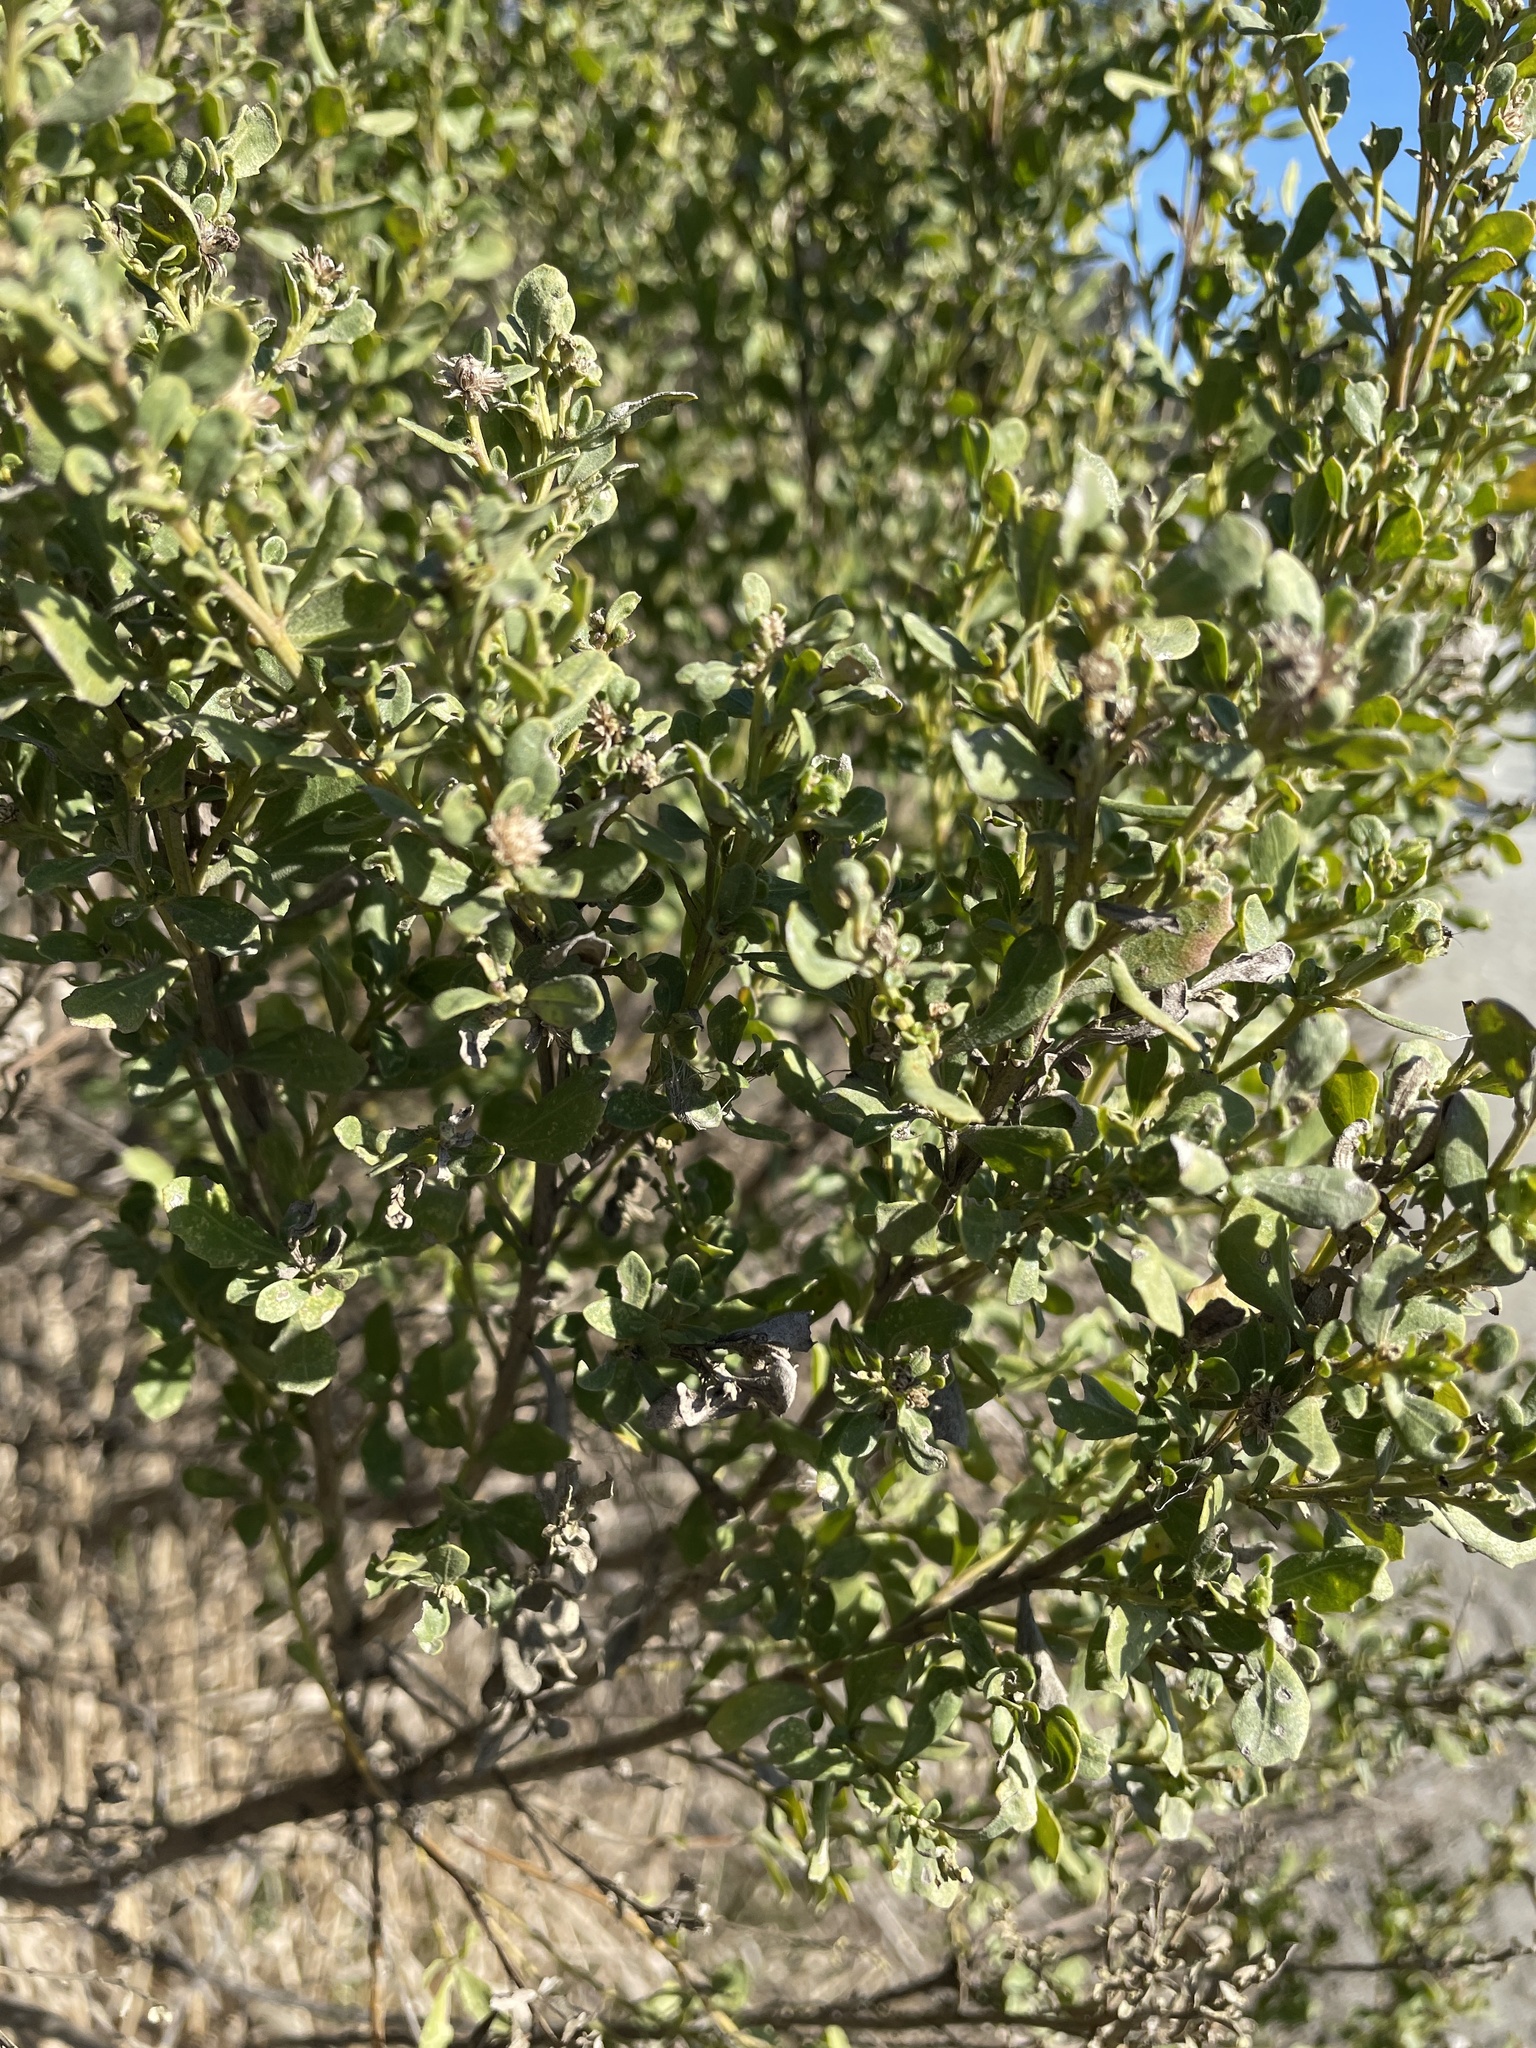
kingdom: Plantae
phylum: Tracheophyta
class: Magnoliopsida
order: Asterales
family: Asteraceae
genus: Baccharis
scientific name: Baccharis pilularis
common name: Coyotebrush
